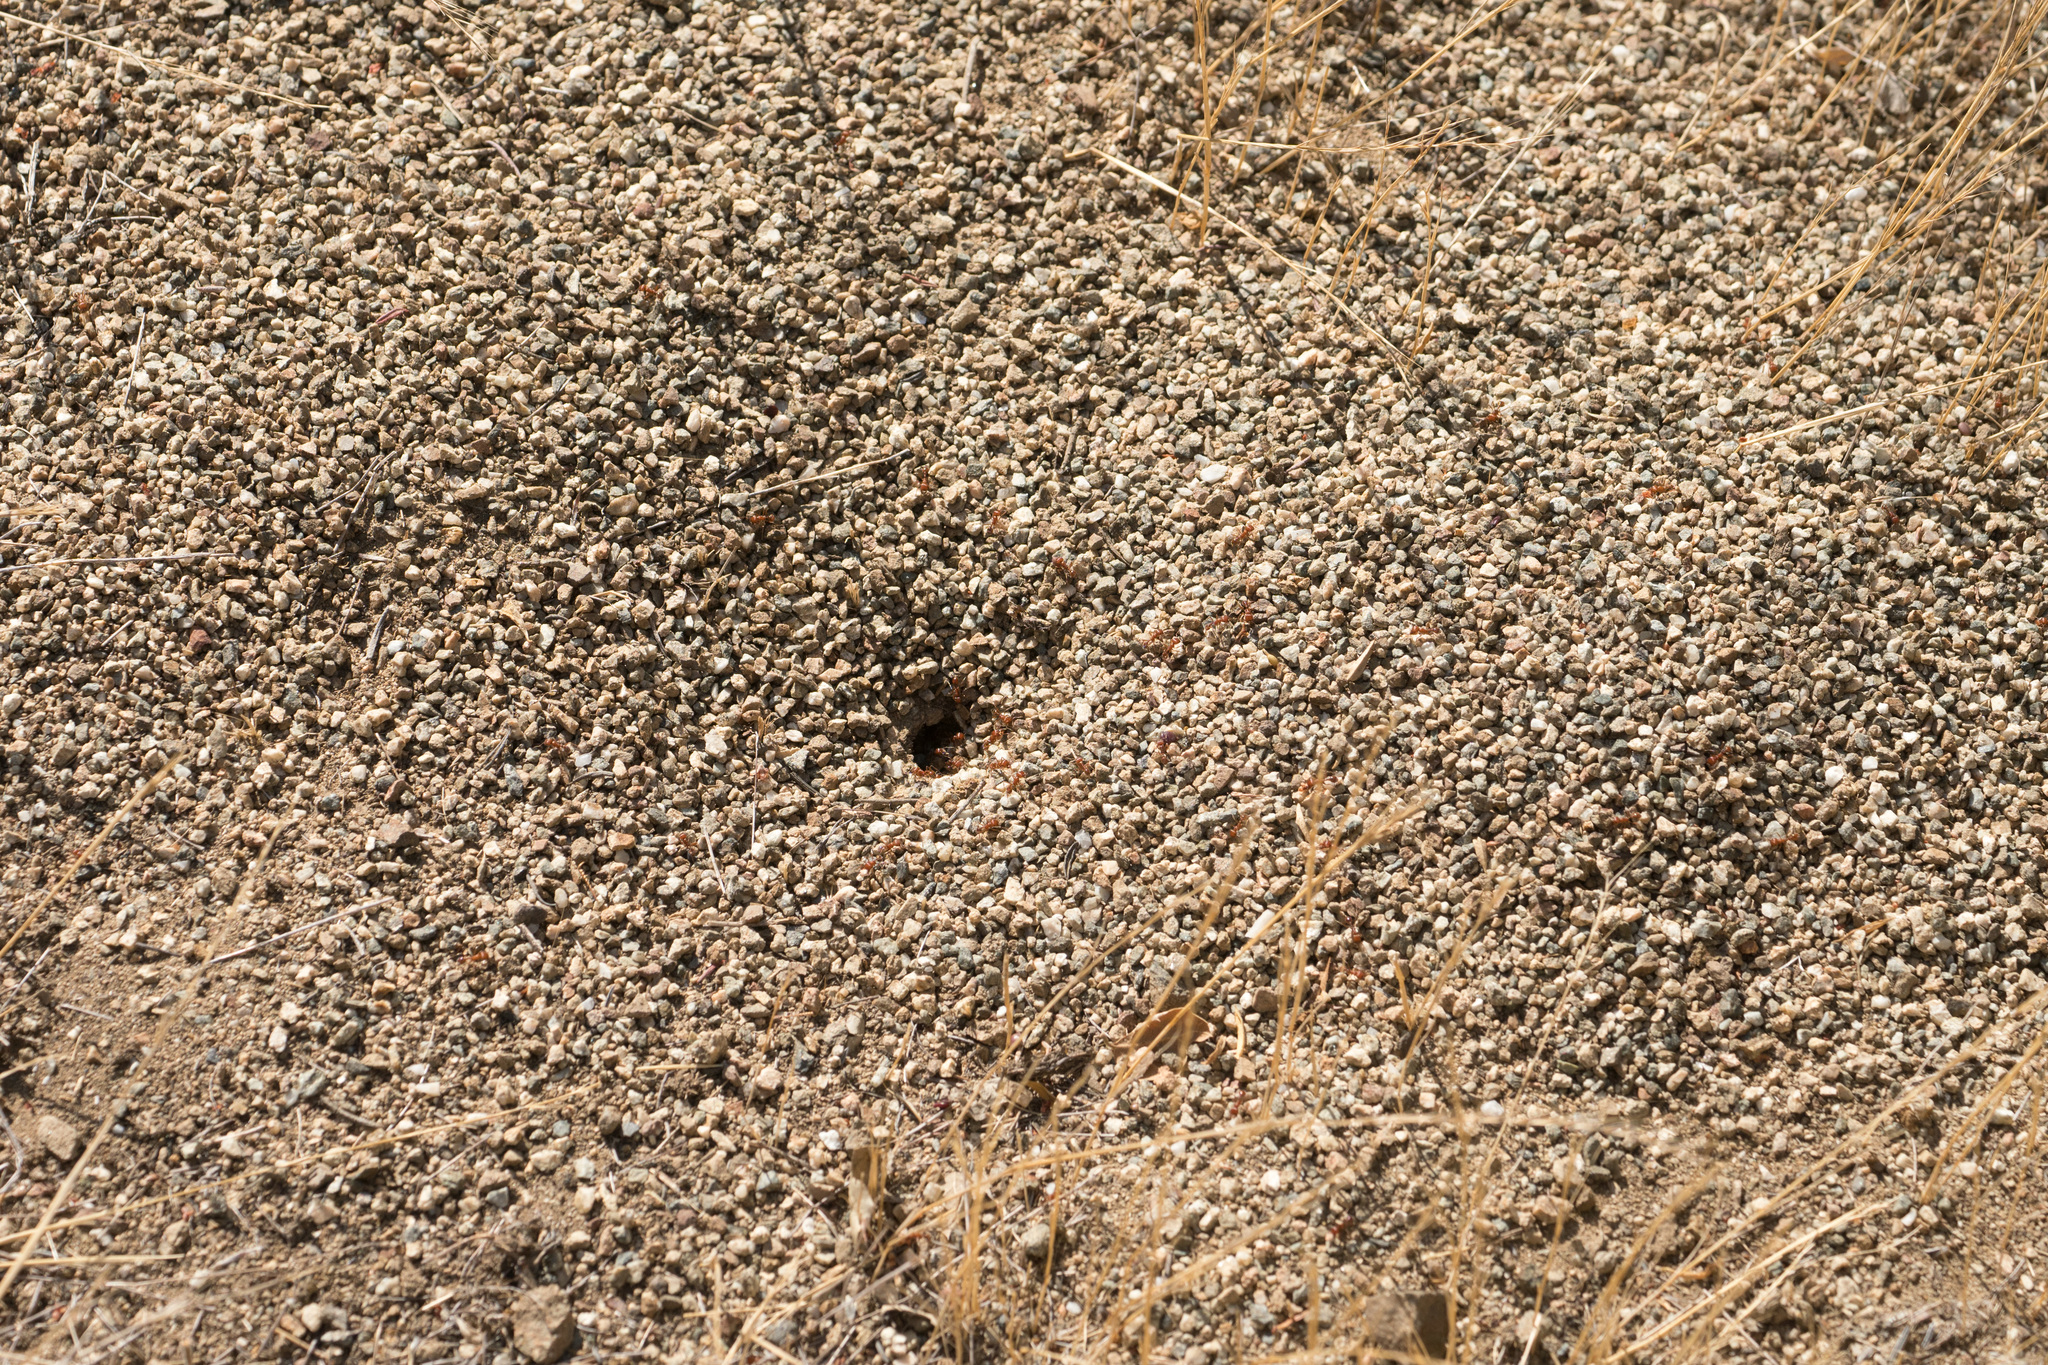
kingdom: Animalia
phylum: Arthropoda
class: Insecta
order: Hymenoptera
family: Formicidae
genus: Pogonomyrmex
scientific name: Pogonomyrmex subnitidus
